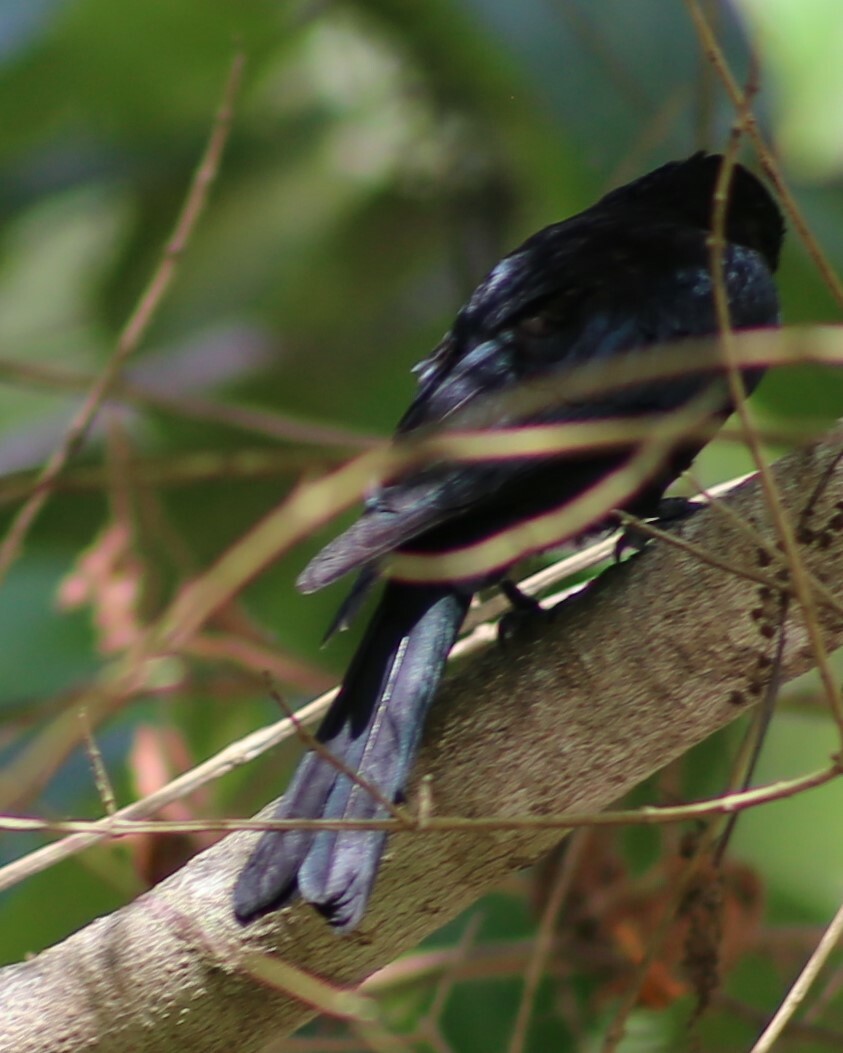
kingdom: Animalia
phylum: Chordata
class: Aves
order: Passeriformes
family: Dicruridae
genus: Dicrurus
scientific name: Dicrurus bracteatus
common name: Spangled drongo
